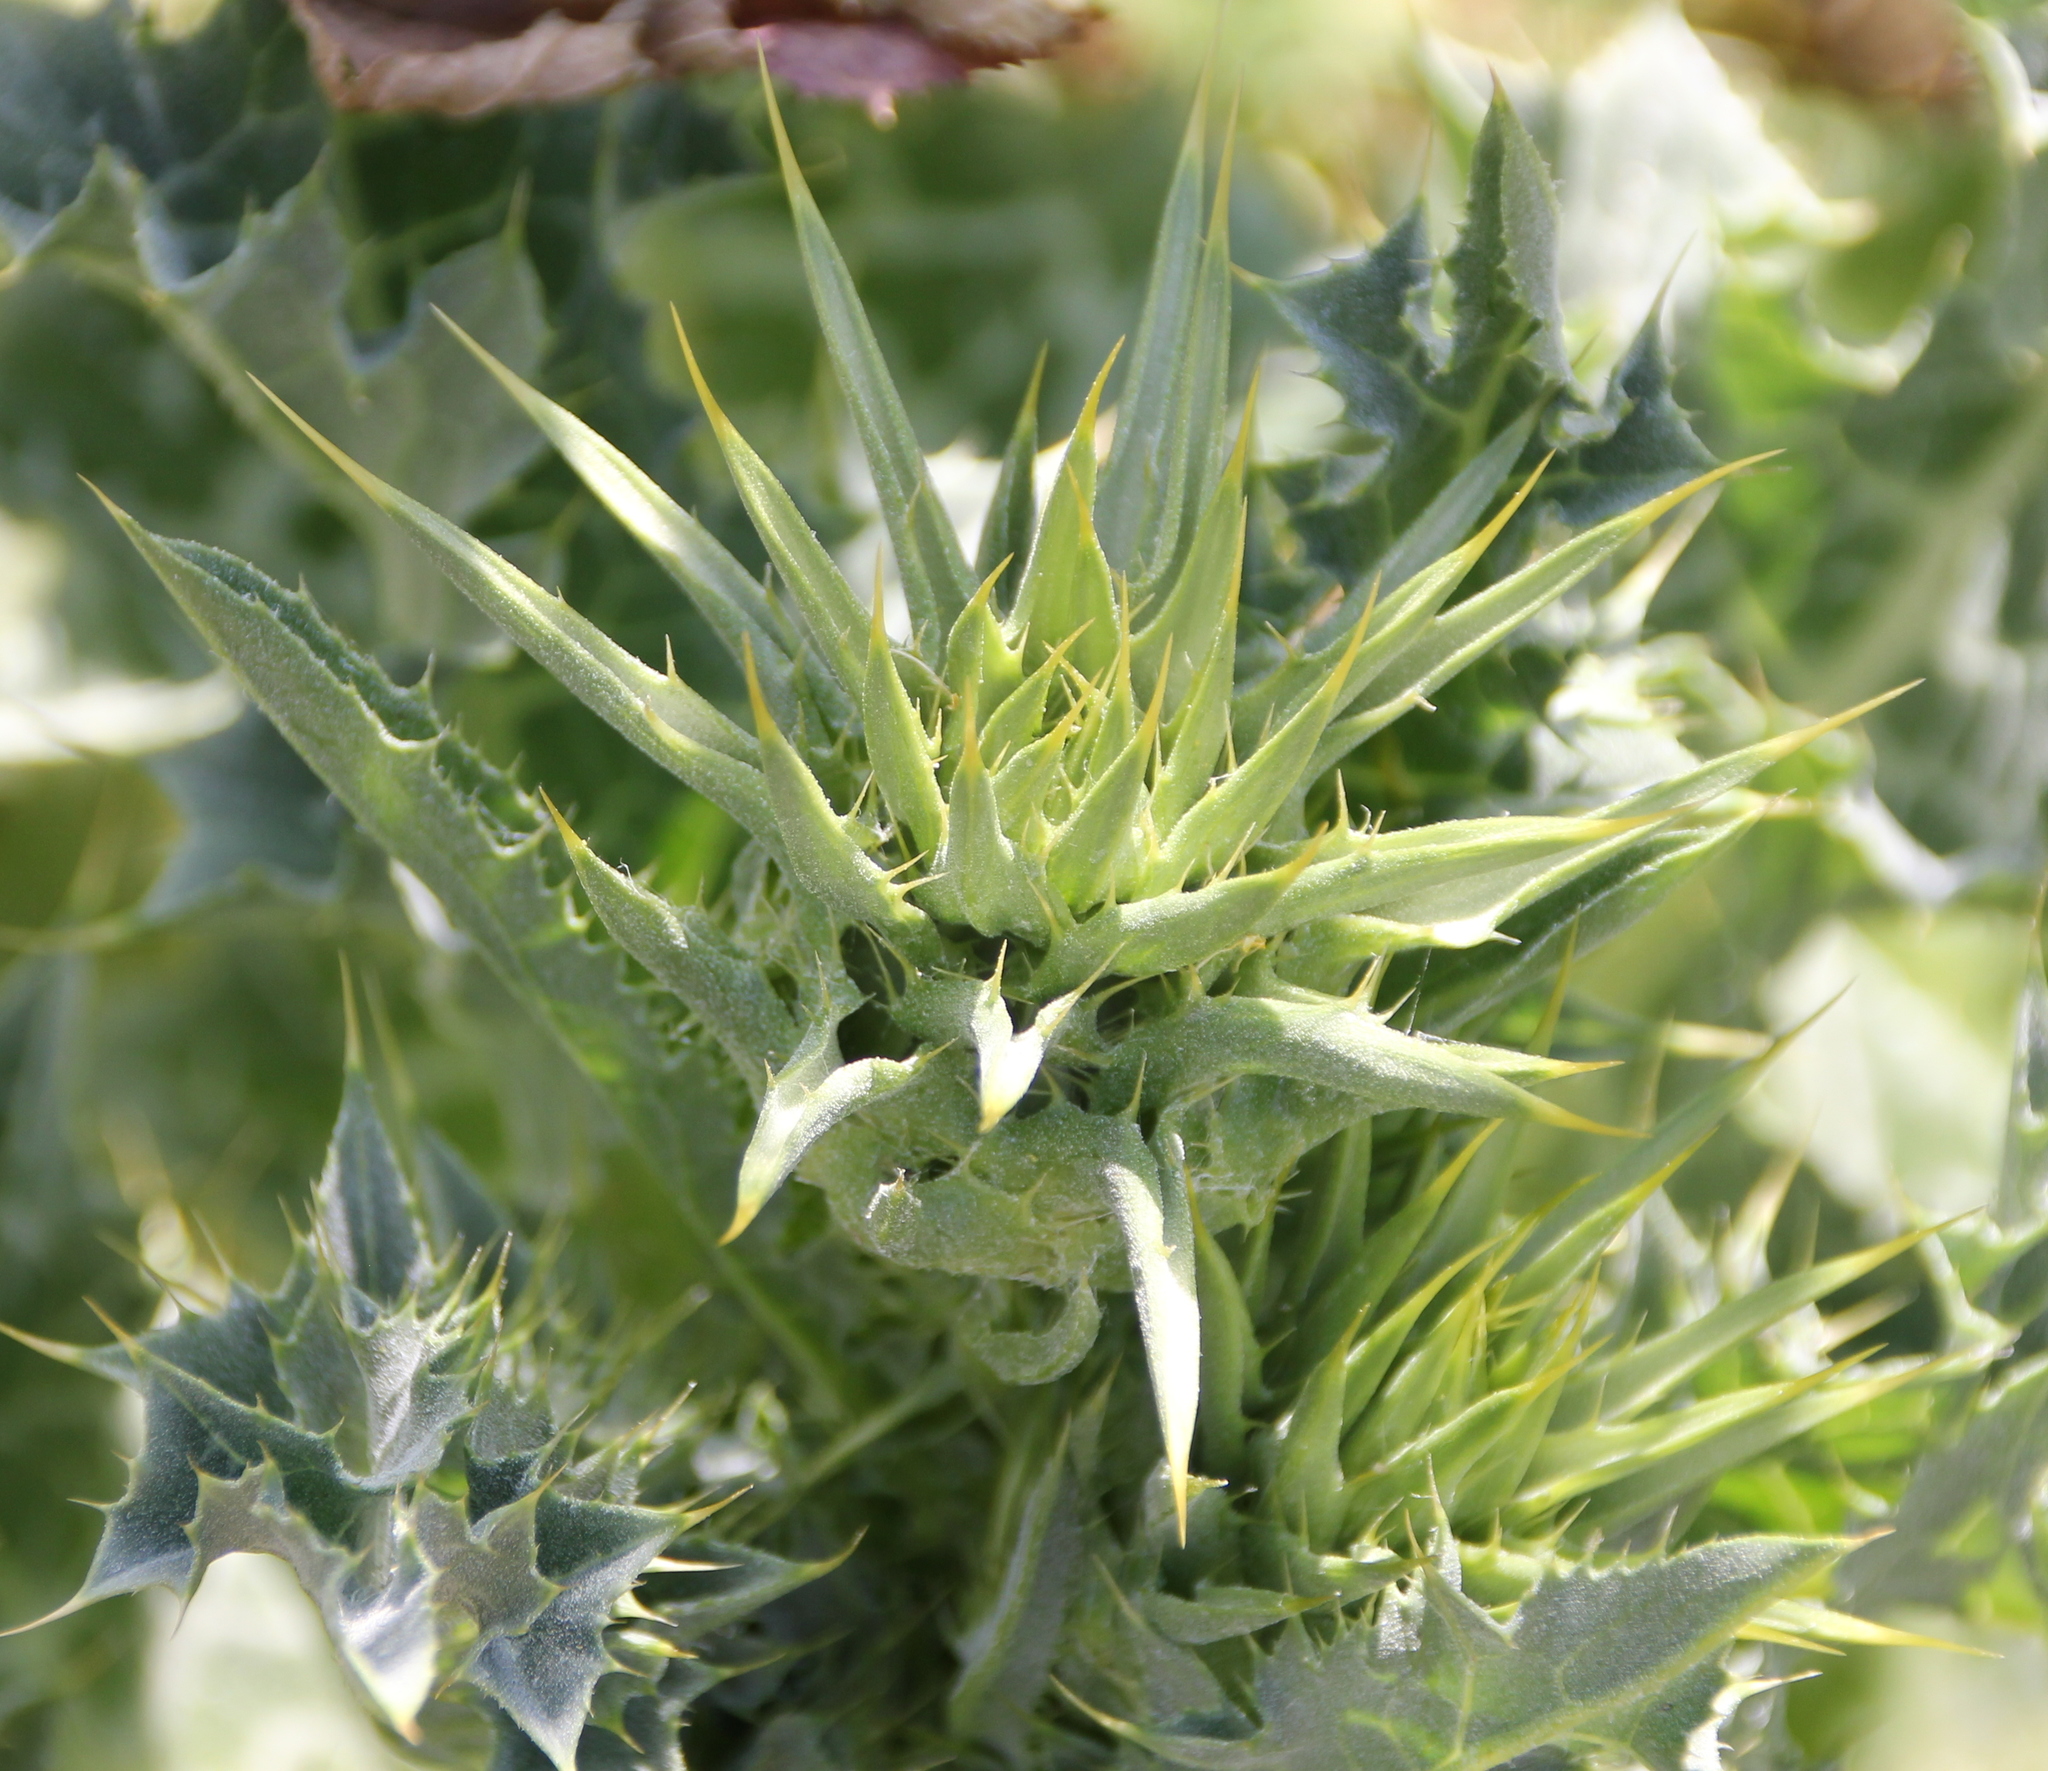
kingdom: Plantae
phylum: Tracheophyta
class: Magnoliopsida
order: Asterales
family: Asteraceae
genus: Silybum
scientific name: Silybum marianum
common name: Milk thistle
